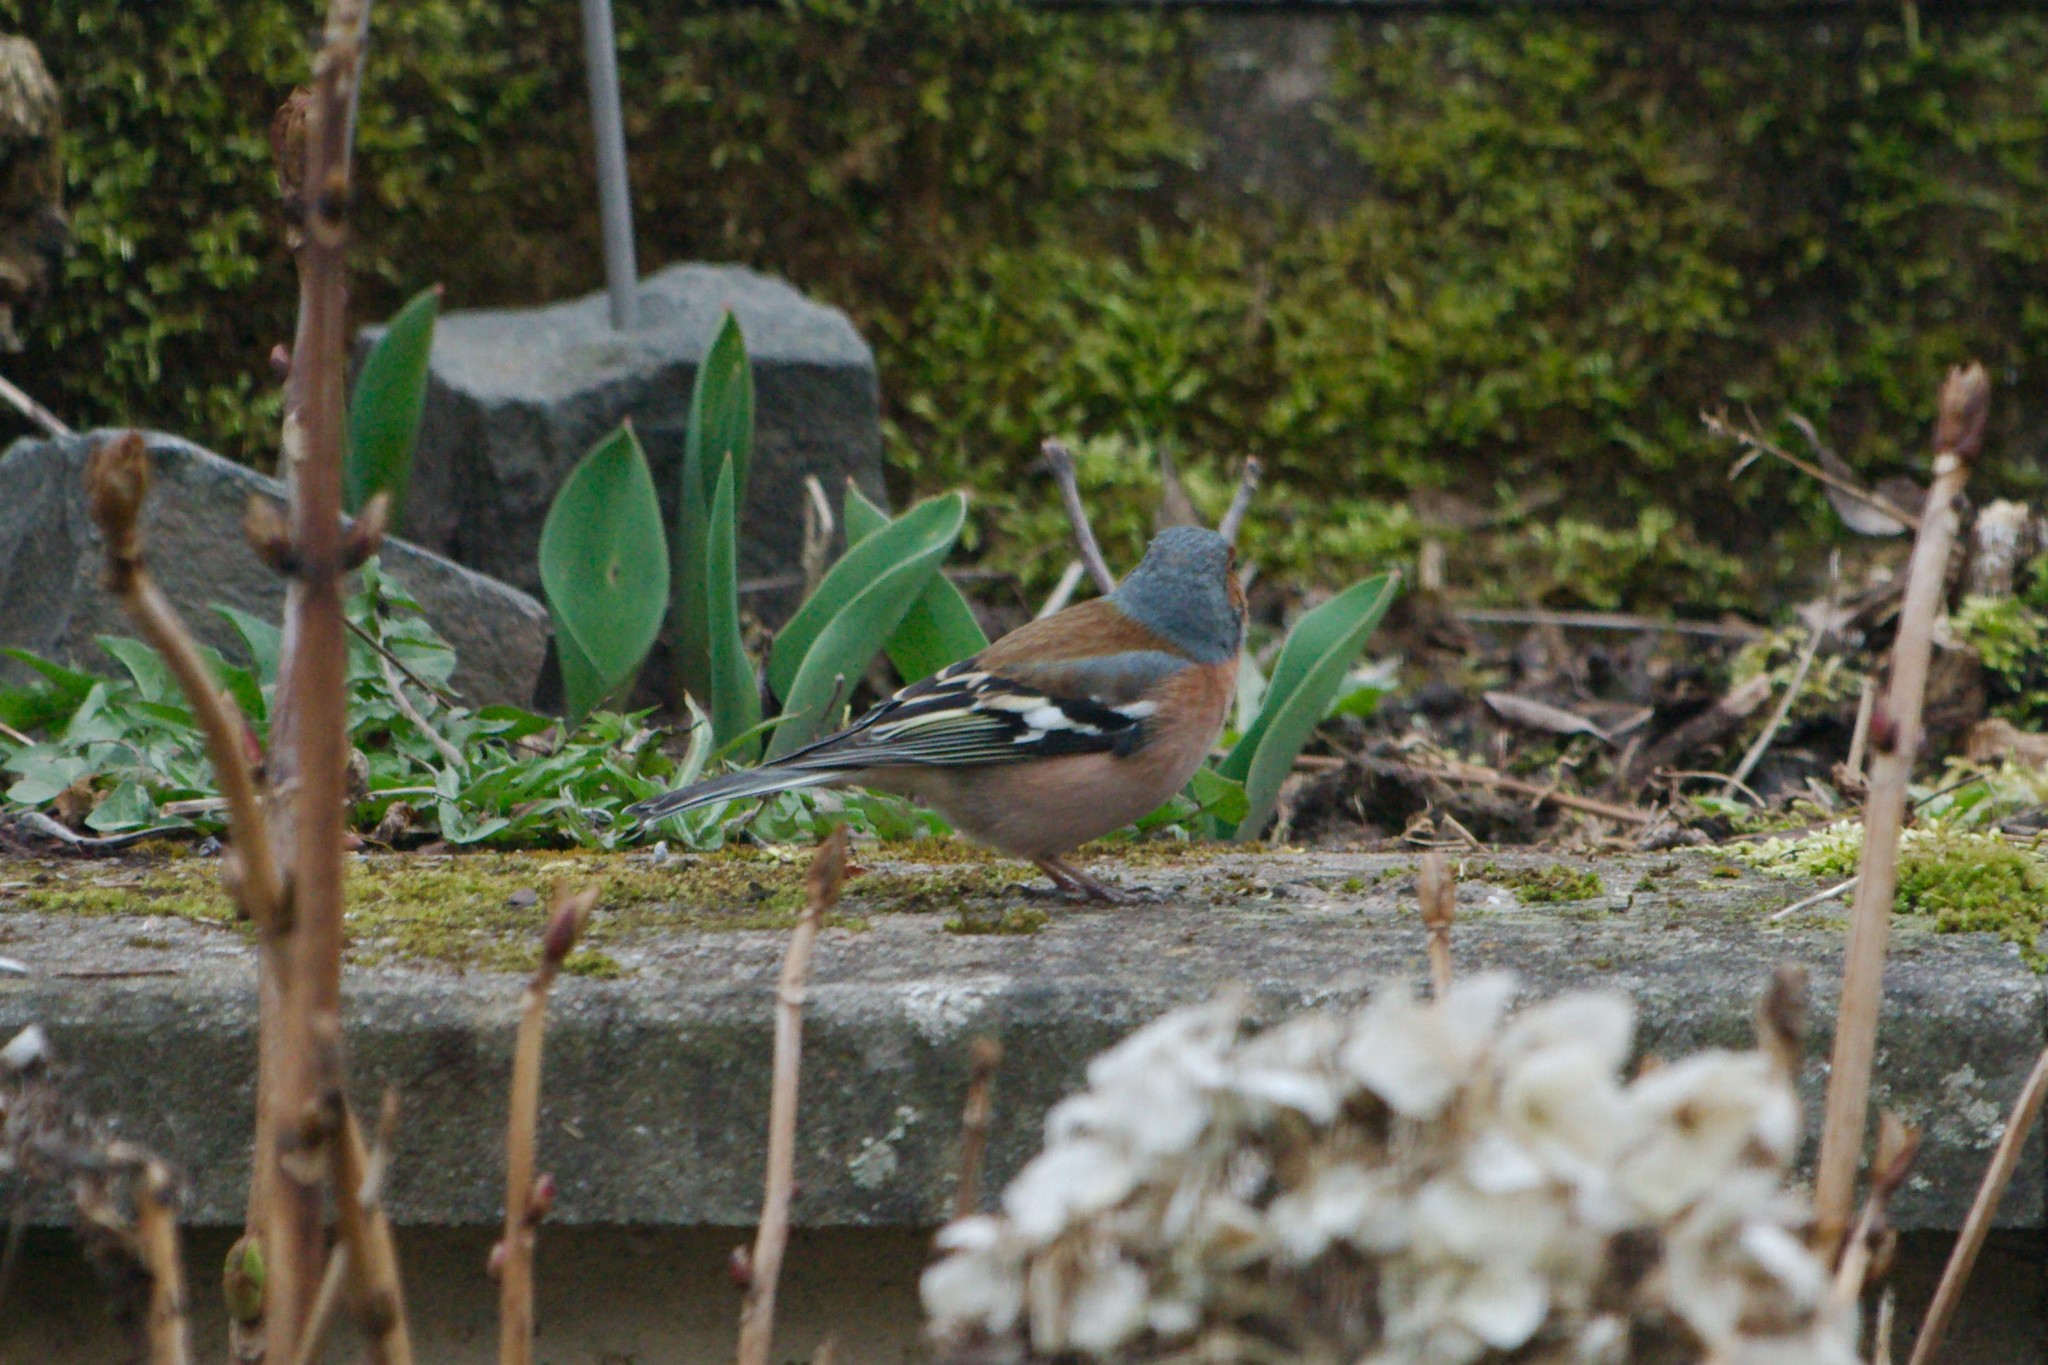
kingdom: Animalia
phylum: Chordata
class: Aves
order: Passeriformes
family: Fringillidae
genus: Fringilla
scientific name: Fringilla coelebs
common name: Common chaffinch
